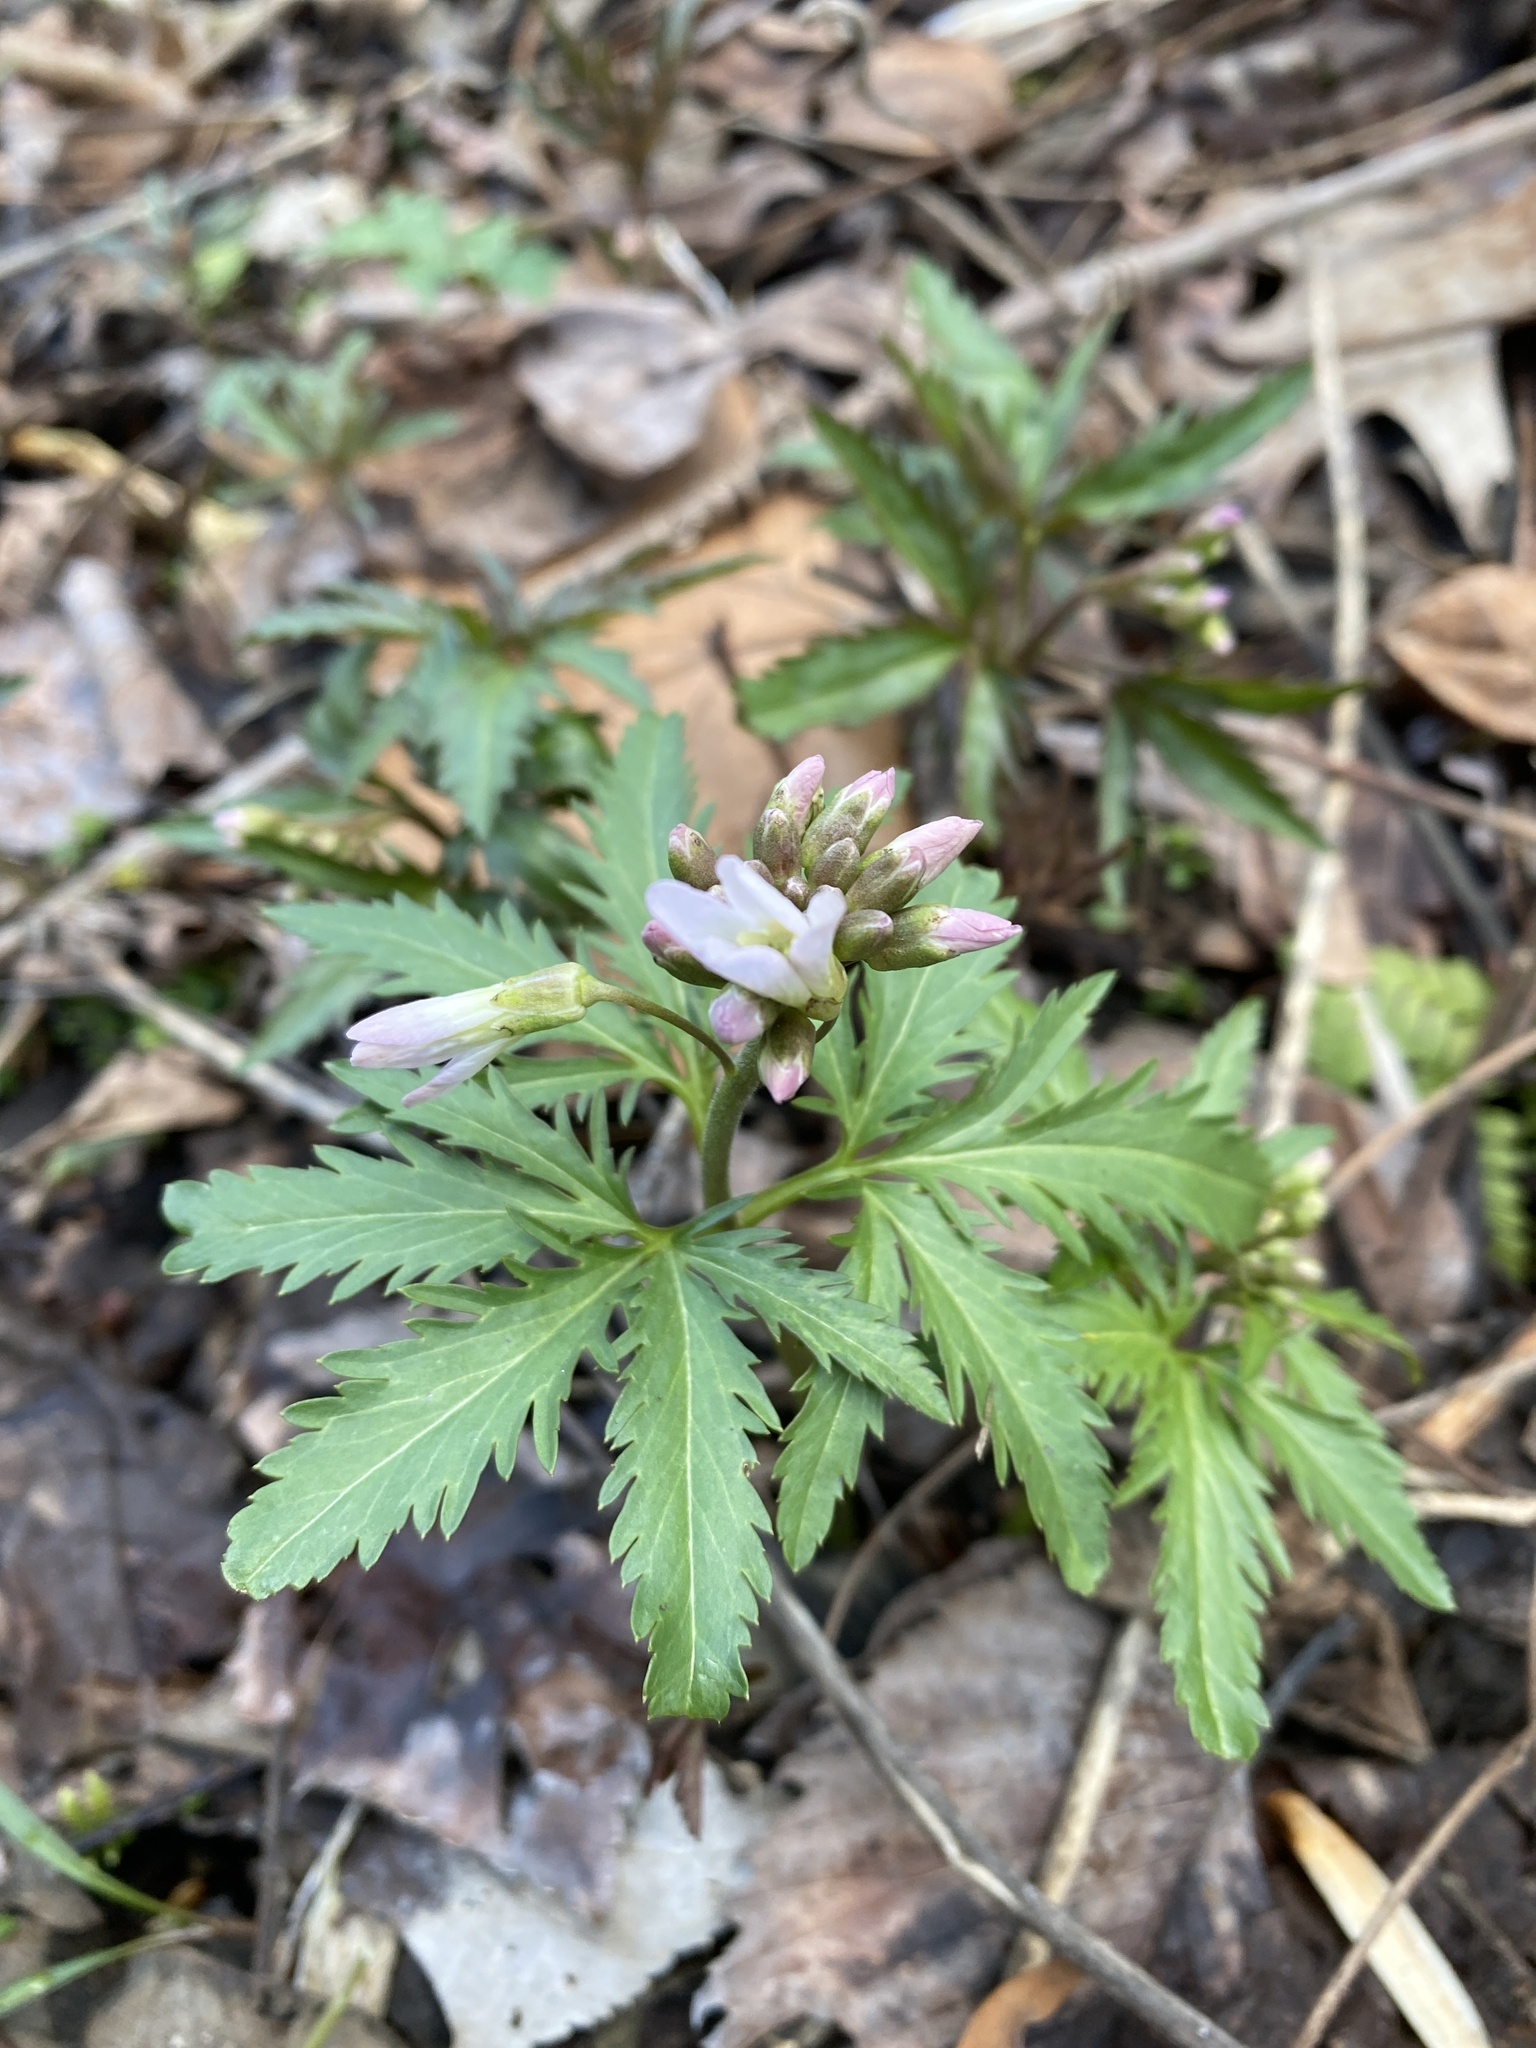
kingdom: Plantae
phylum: Tracheophyta
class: Magnoliopsida
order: Brassicales
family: Brassicaceae
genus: Cardamine
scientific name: Cardamine concatenata
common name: Cut-leaf toothcup
